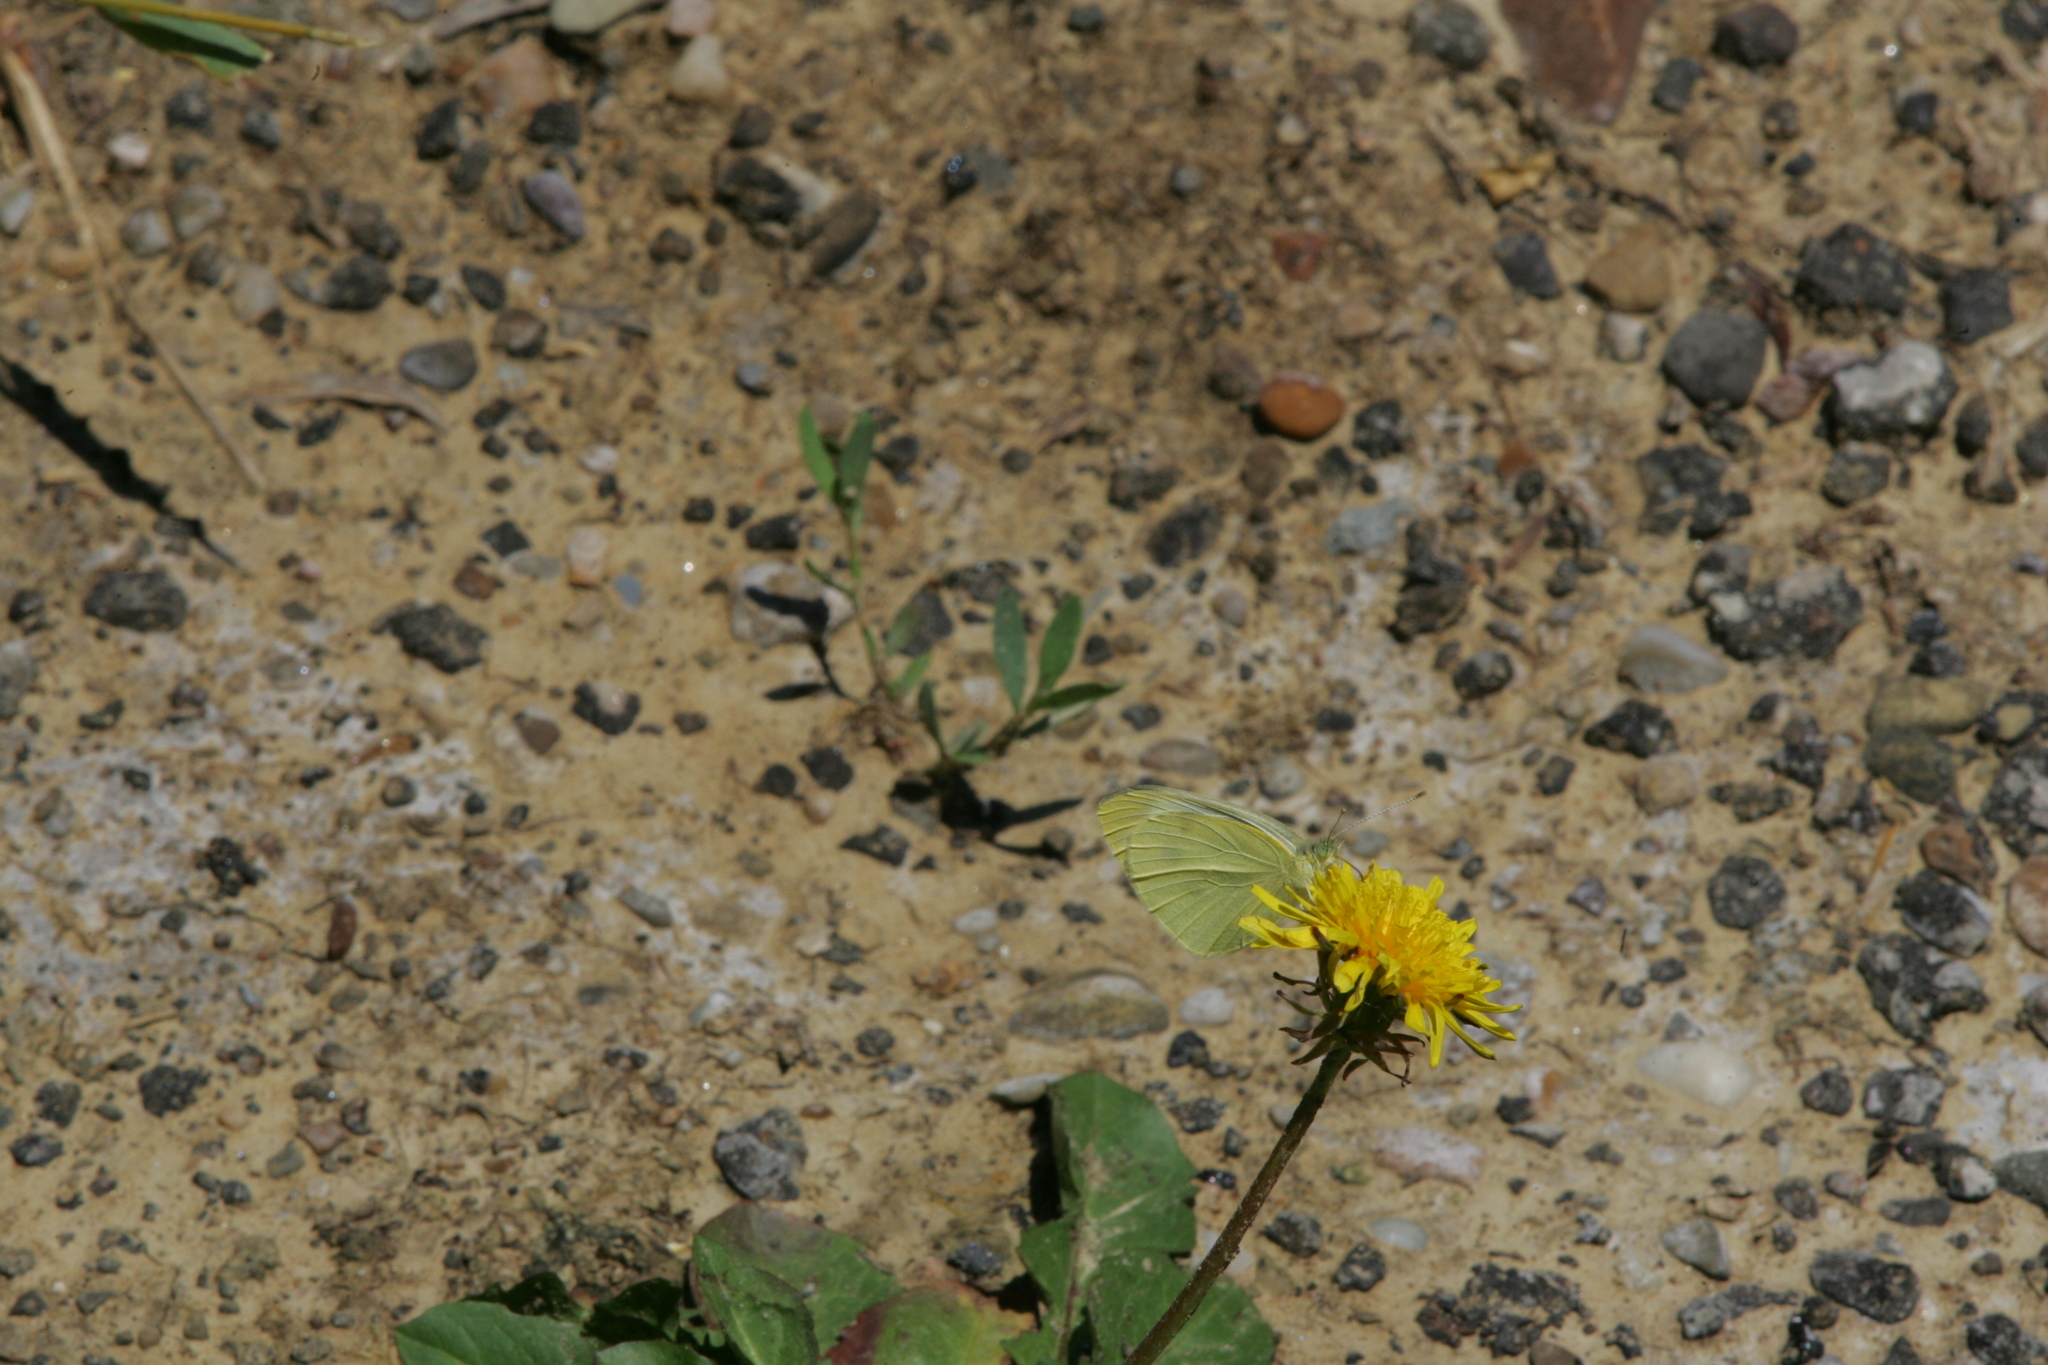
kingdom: Animalia
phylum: Arthropoda
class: Insecta
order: Lepidoptera
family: Pieridae
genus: Pieris
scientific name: Pieris rapae
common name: Small white
